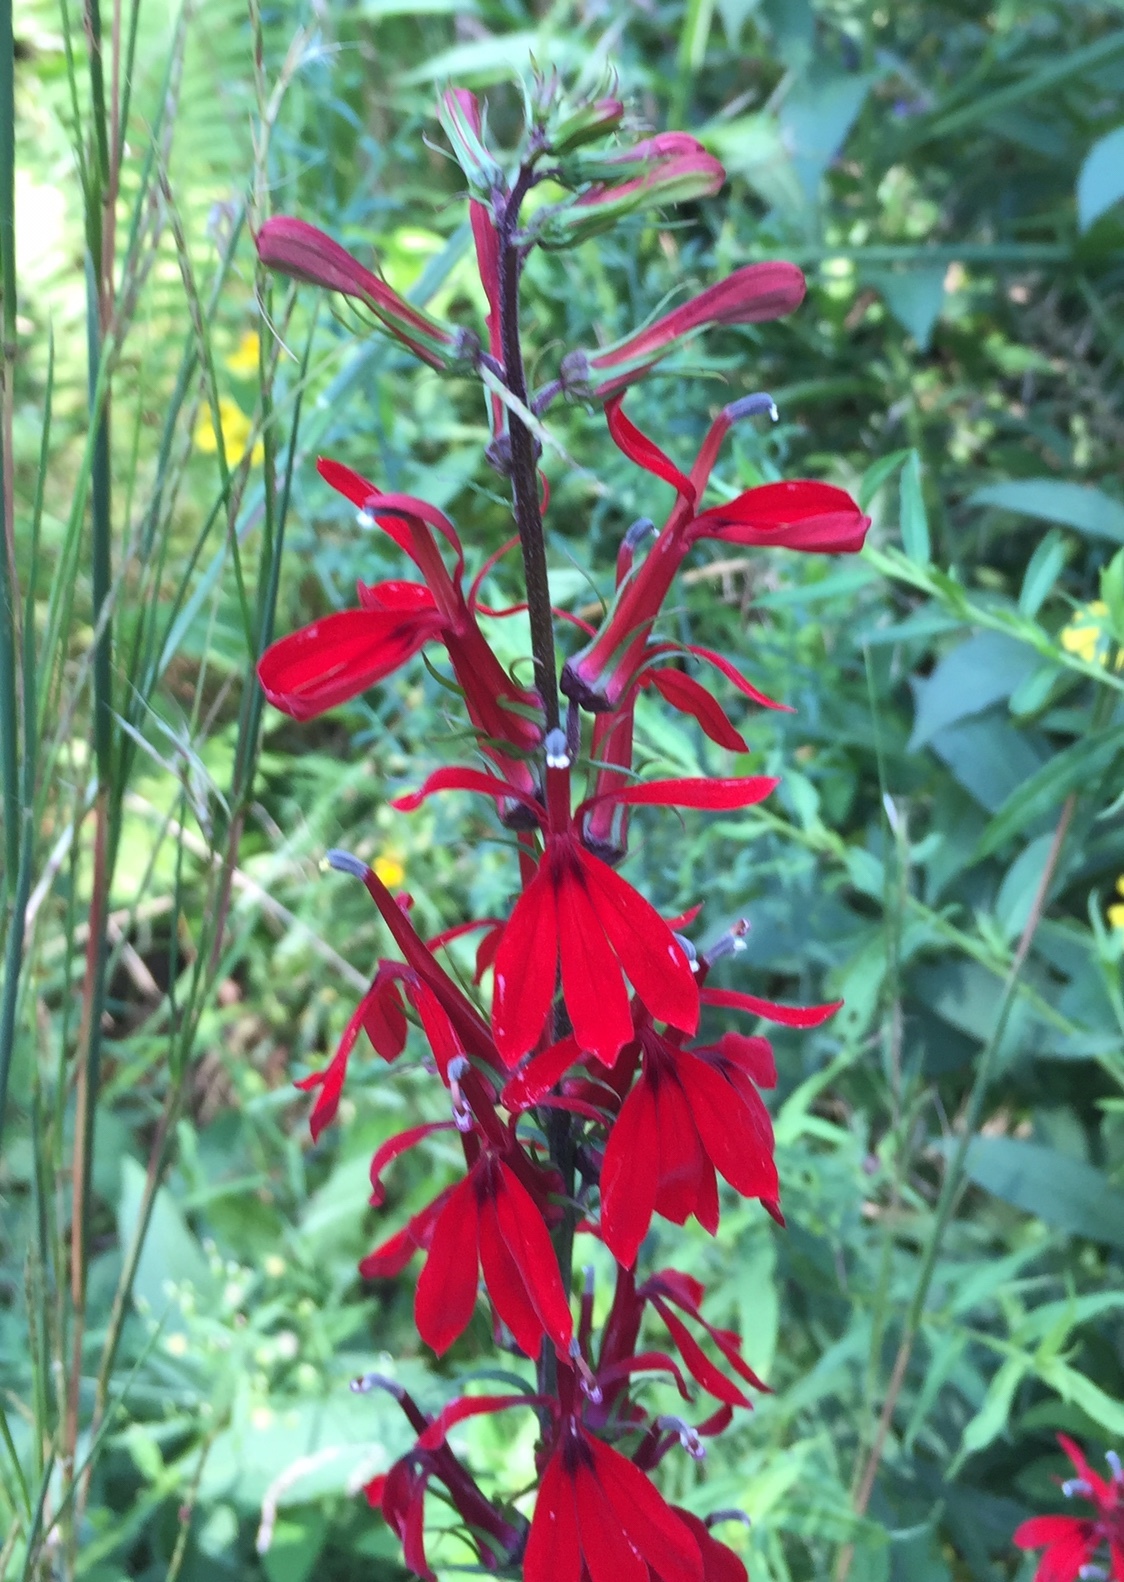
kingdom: Plantae
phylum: Tracheophyta
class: Magnoliopsida
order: Asterales
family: Campanulaceae
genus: Lobelia
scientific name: Lobelia cardinalis
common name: Cardinal flower
